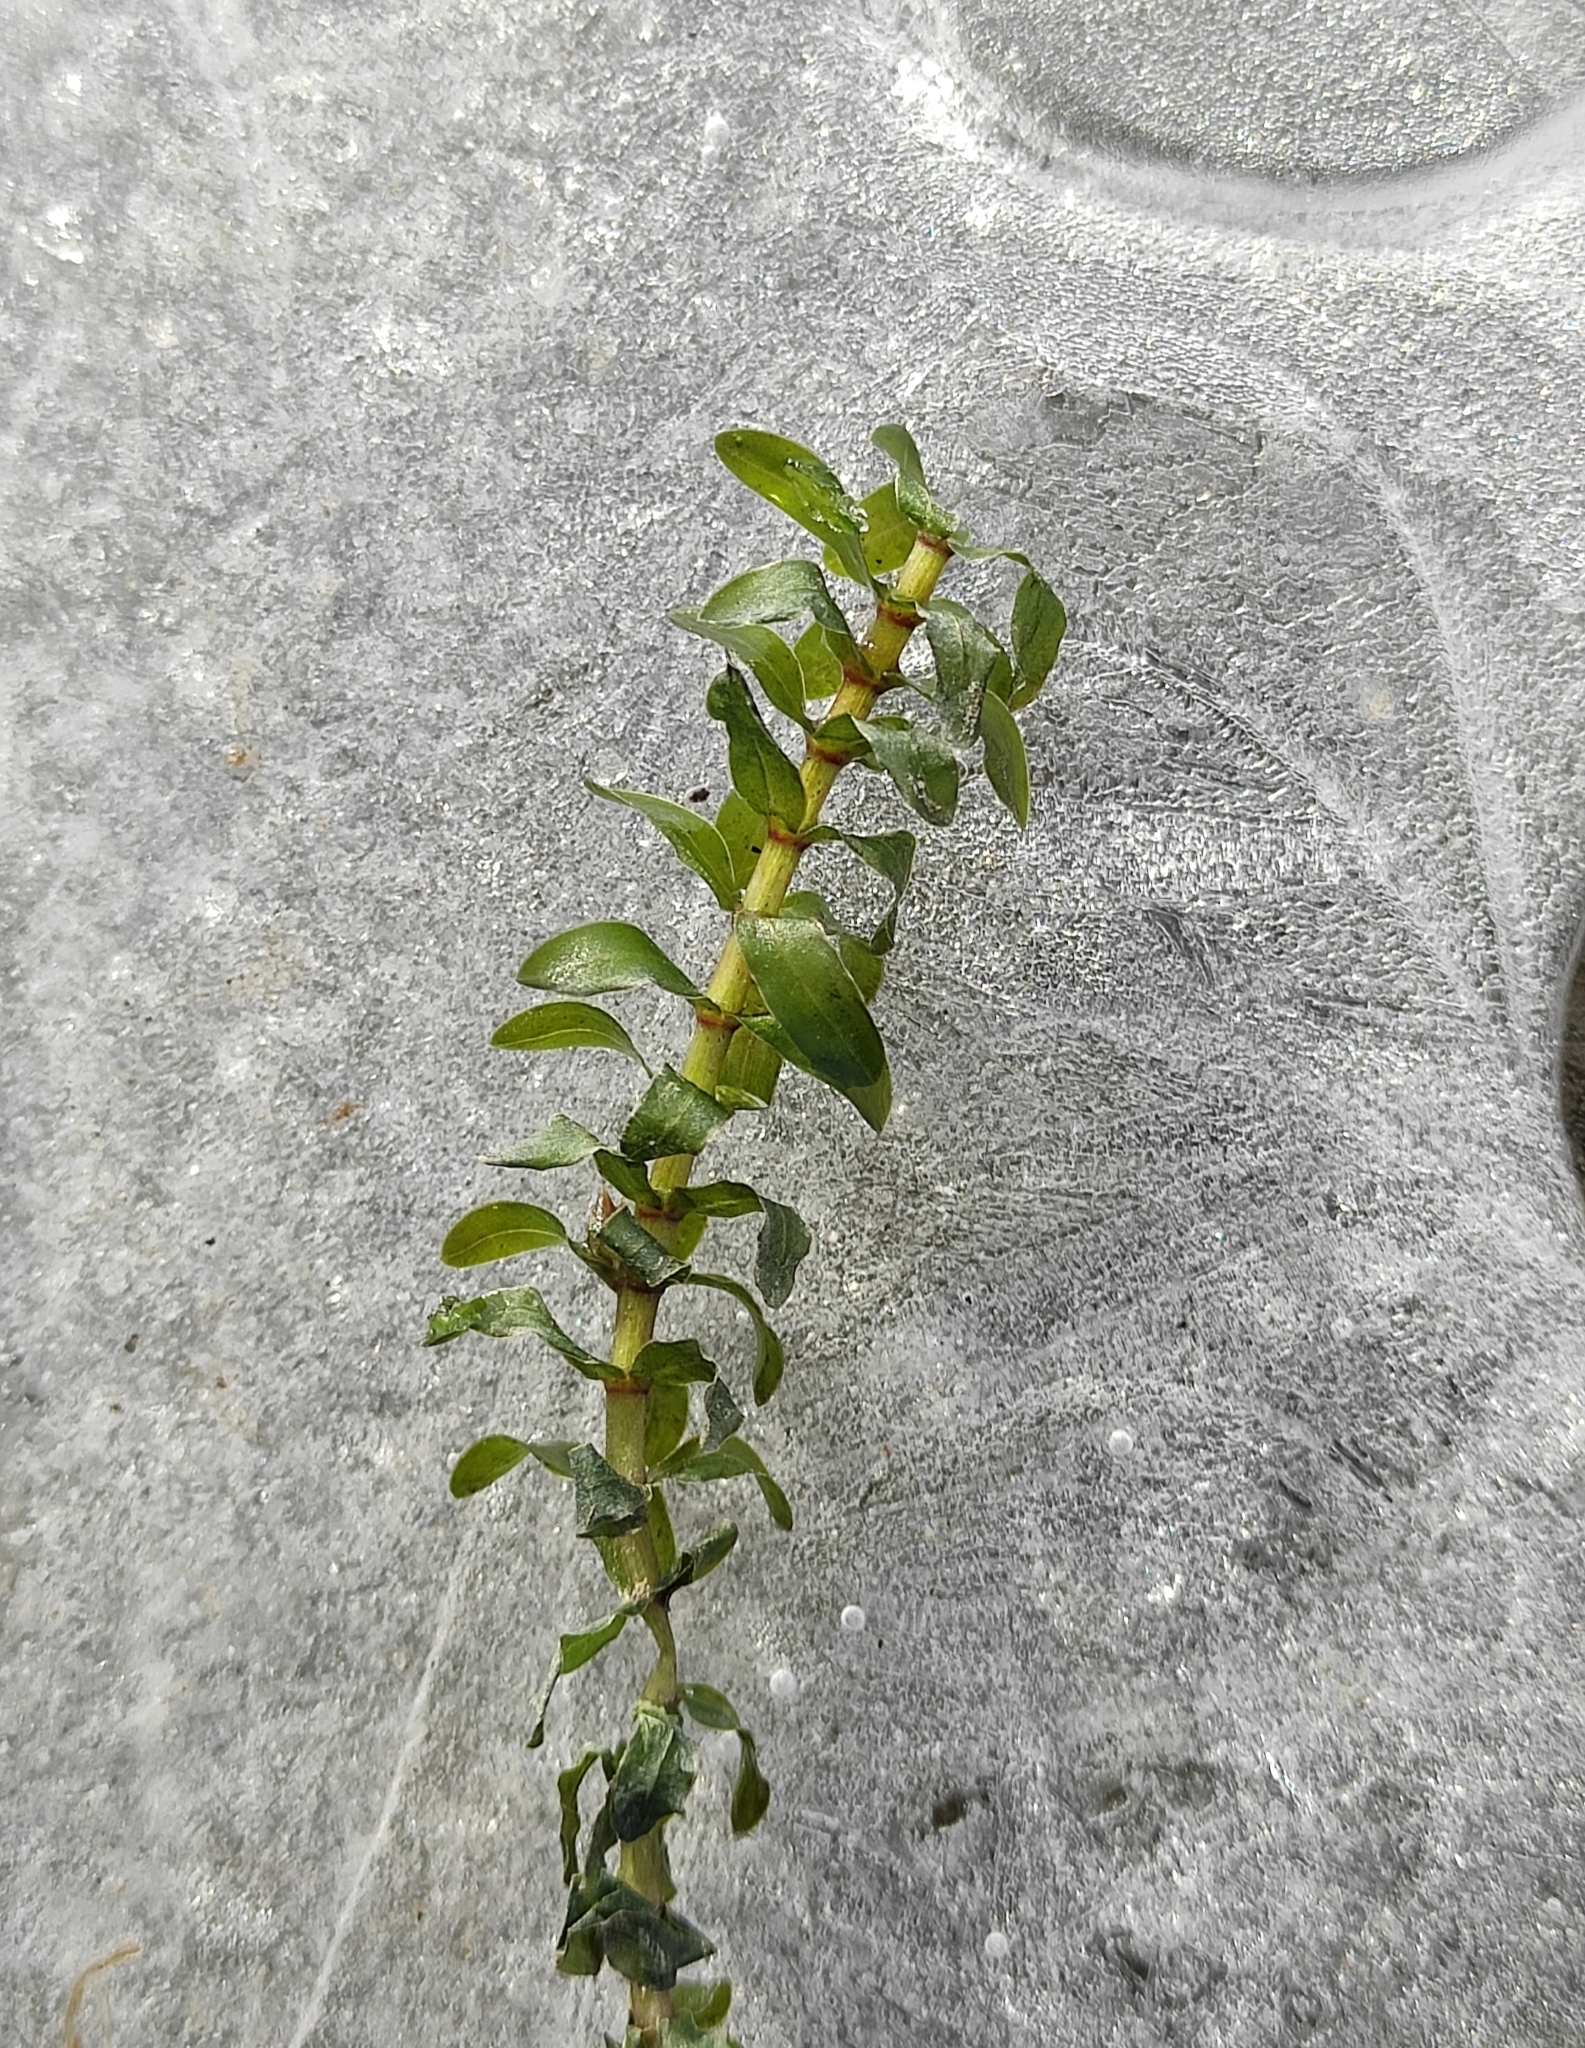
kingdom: Plantae
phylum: Tracheophyta
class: Liliopsida
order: Alismatales
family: Hydrocharitaceae
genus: Elodea
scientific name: Elodea canadensis
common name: Canadian waterweed
